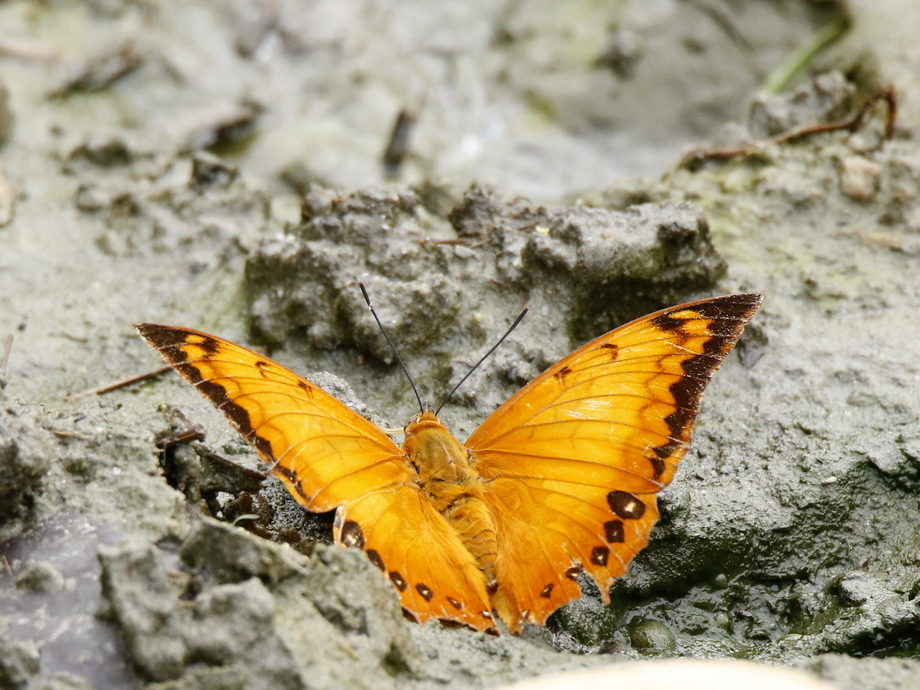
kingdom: Animalia
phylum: Arthropoda
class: Insecta
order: Lepidoptera
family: Nymphalidae
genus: Charaxes
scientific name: Charaxes marmax
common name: Yellow rajah
